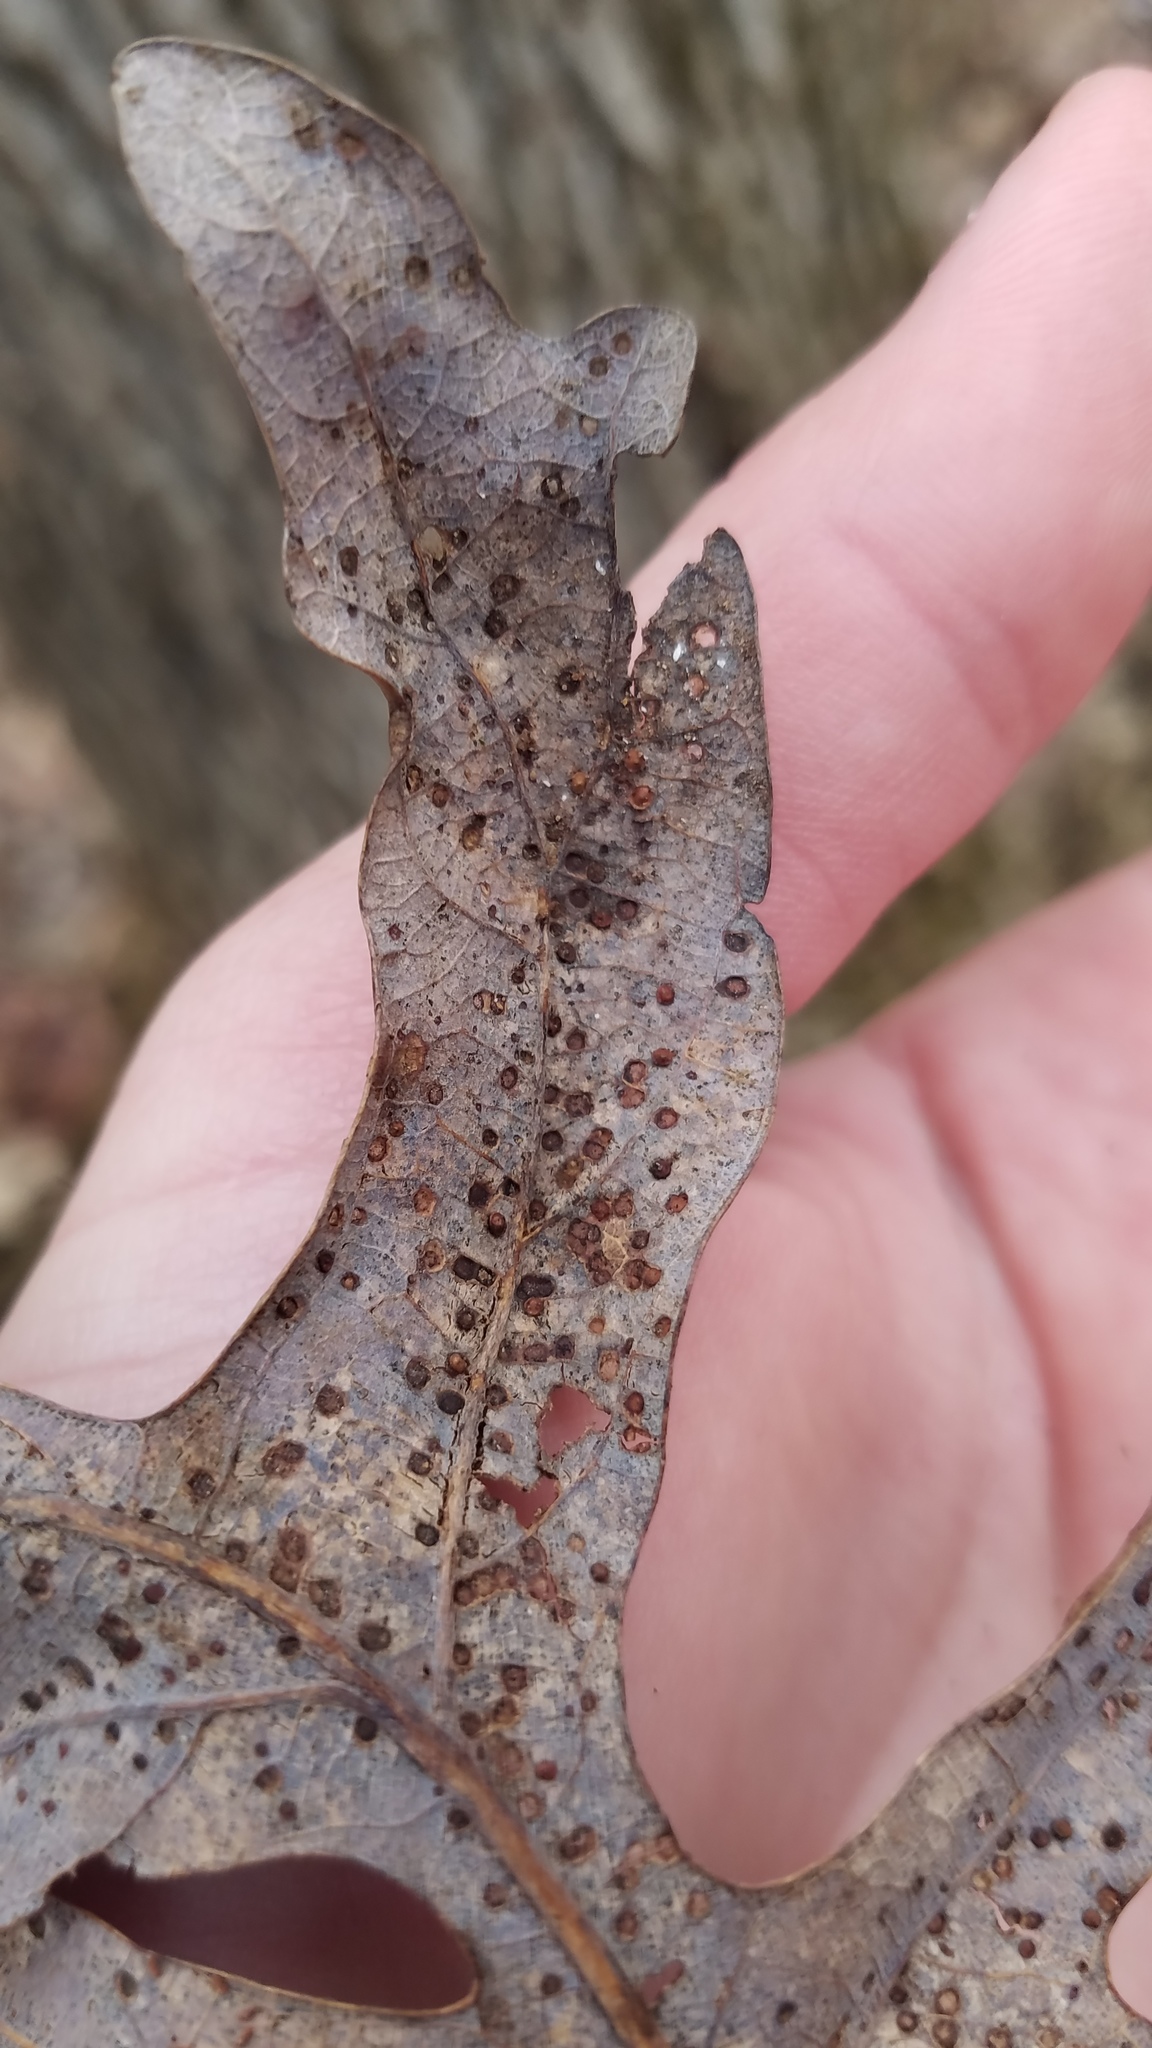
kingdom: Animalia
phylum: Arthropoda
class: Insecta
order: Hymenoptera
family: Cynipidae
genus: Neuroterus
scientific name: Neuroterus
